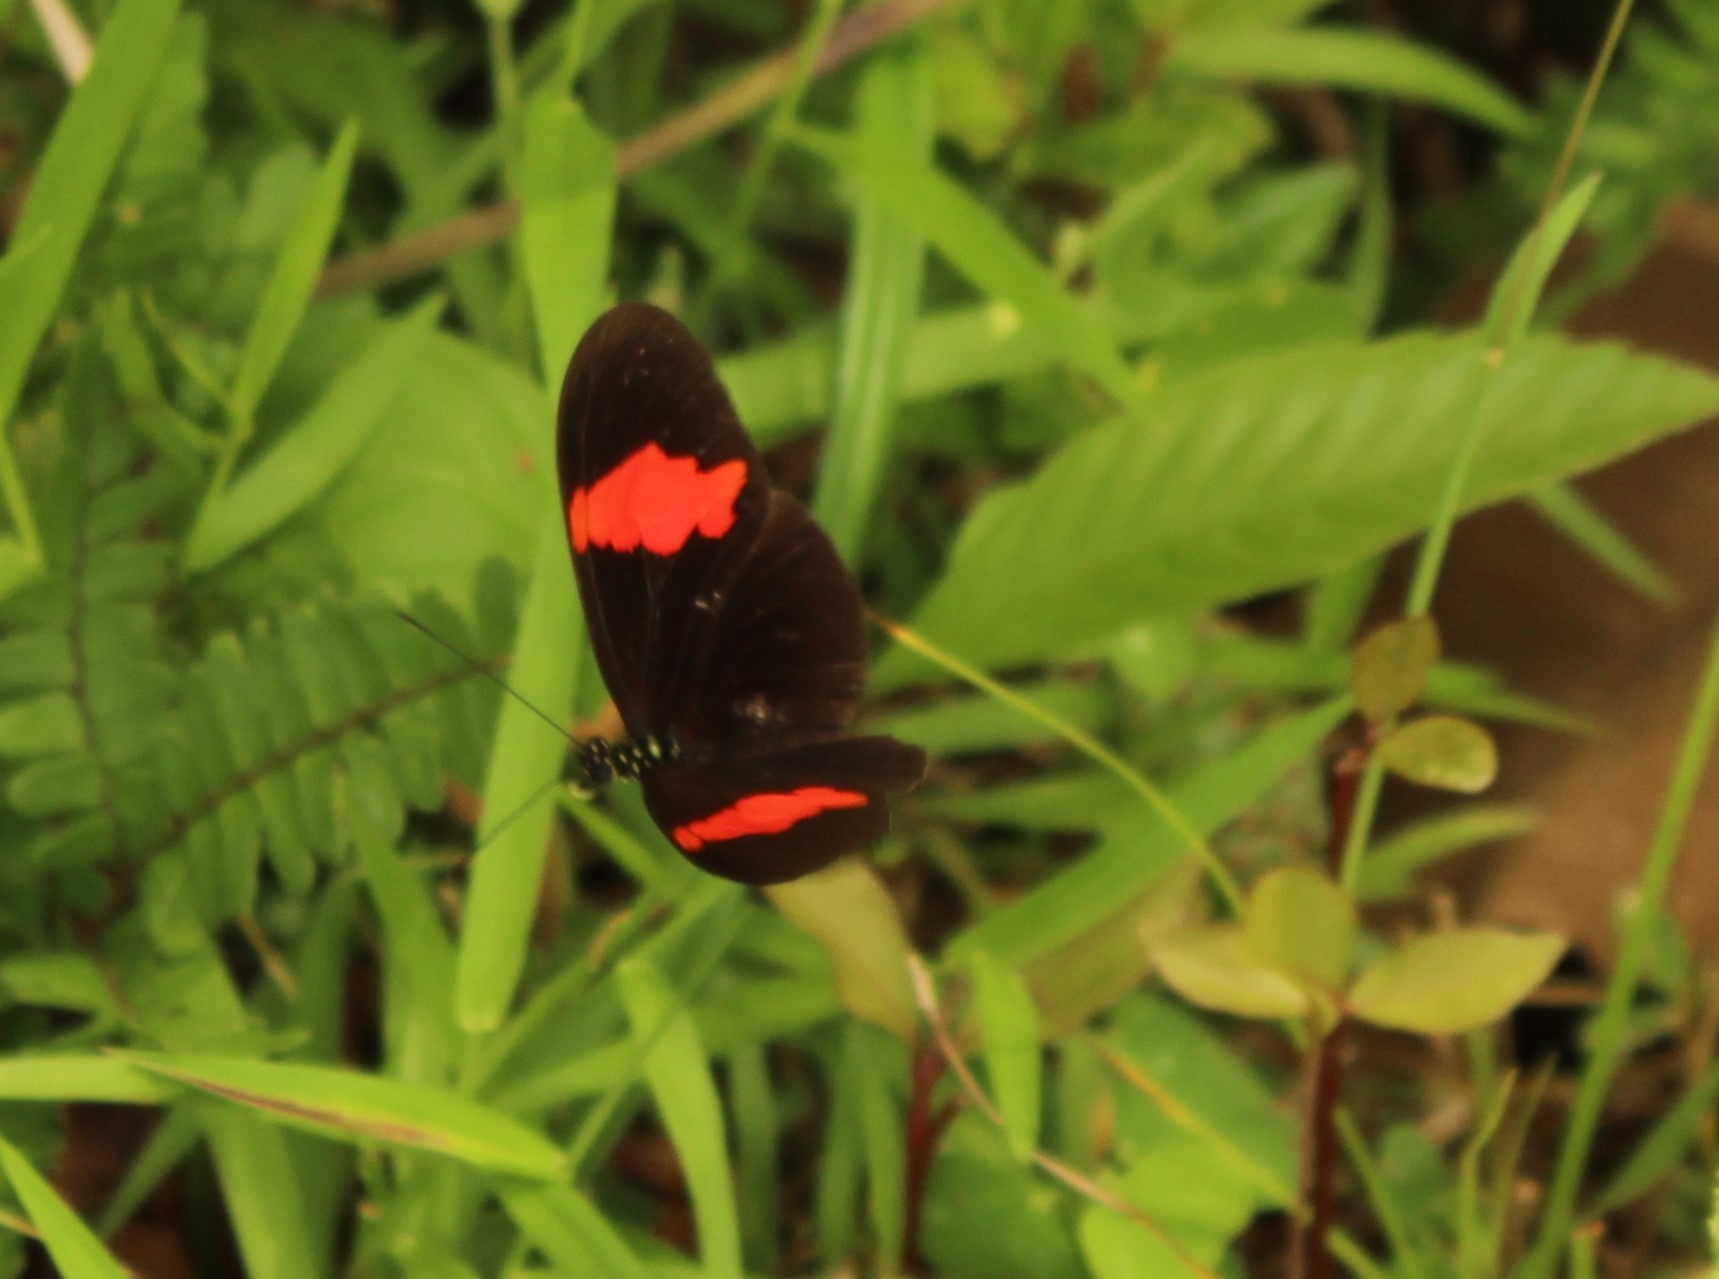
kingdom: Animalia
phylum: Arthropoda
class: Insecta
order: Lepidoptera
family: Nymphalidae
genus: Heliconius
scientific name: Heliconius erato
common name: Common patch longwing
